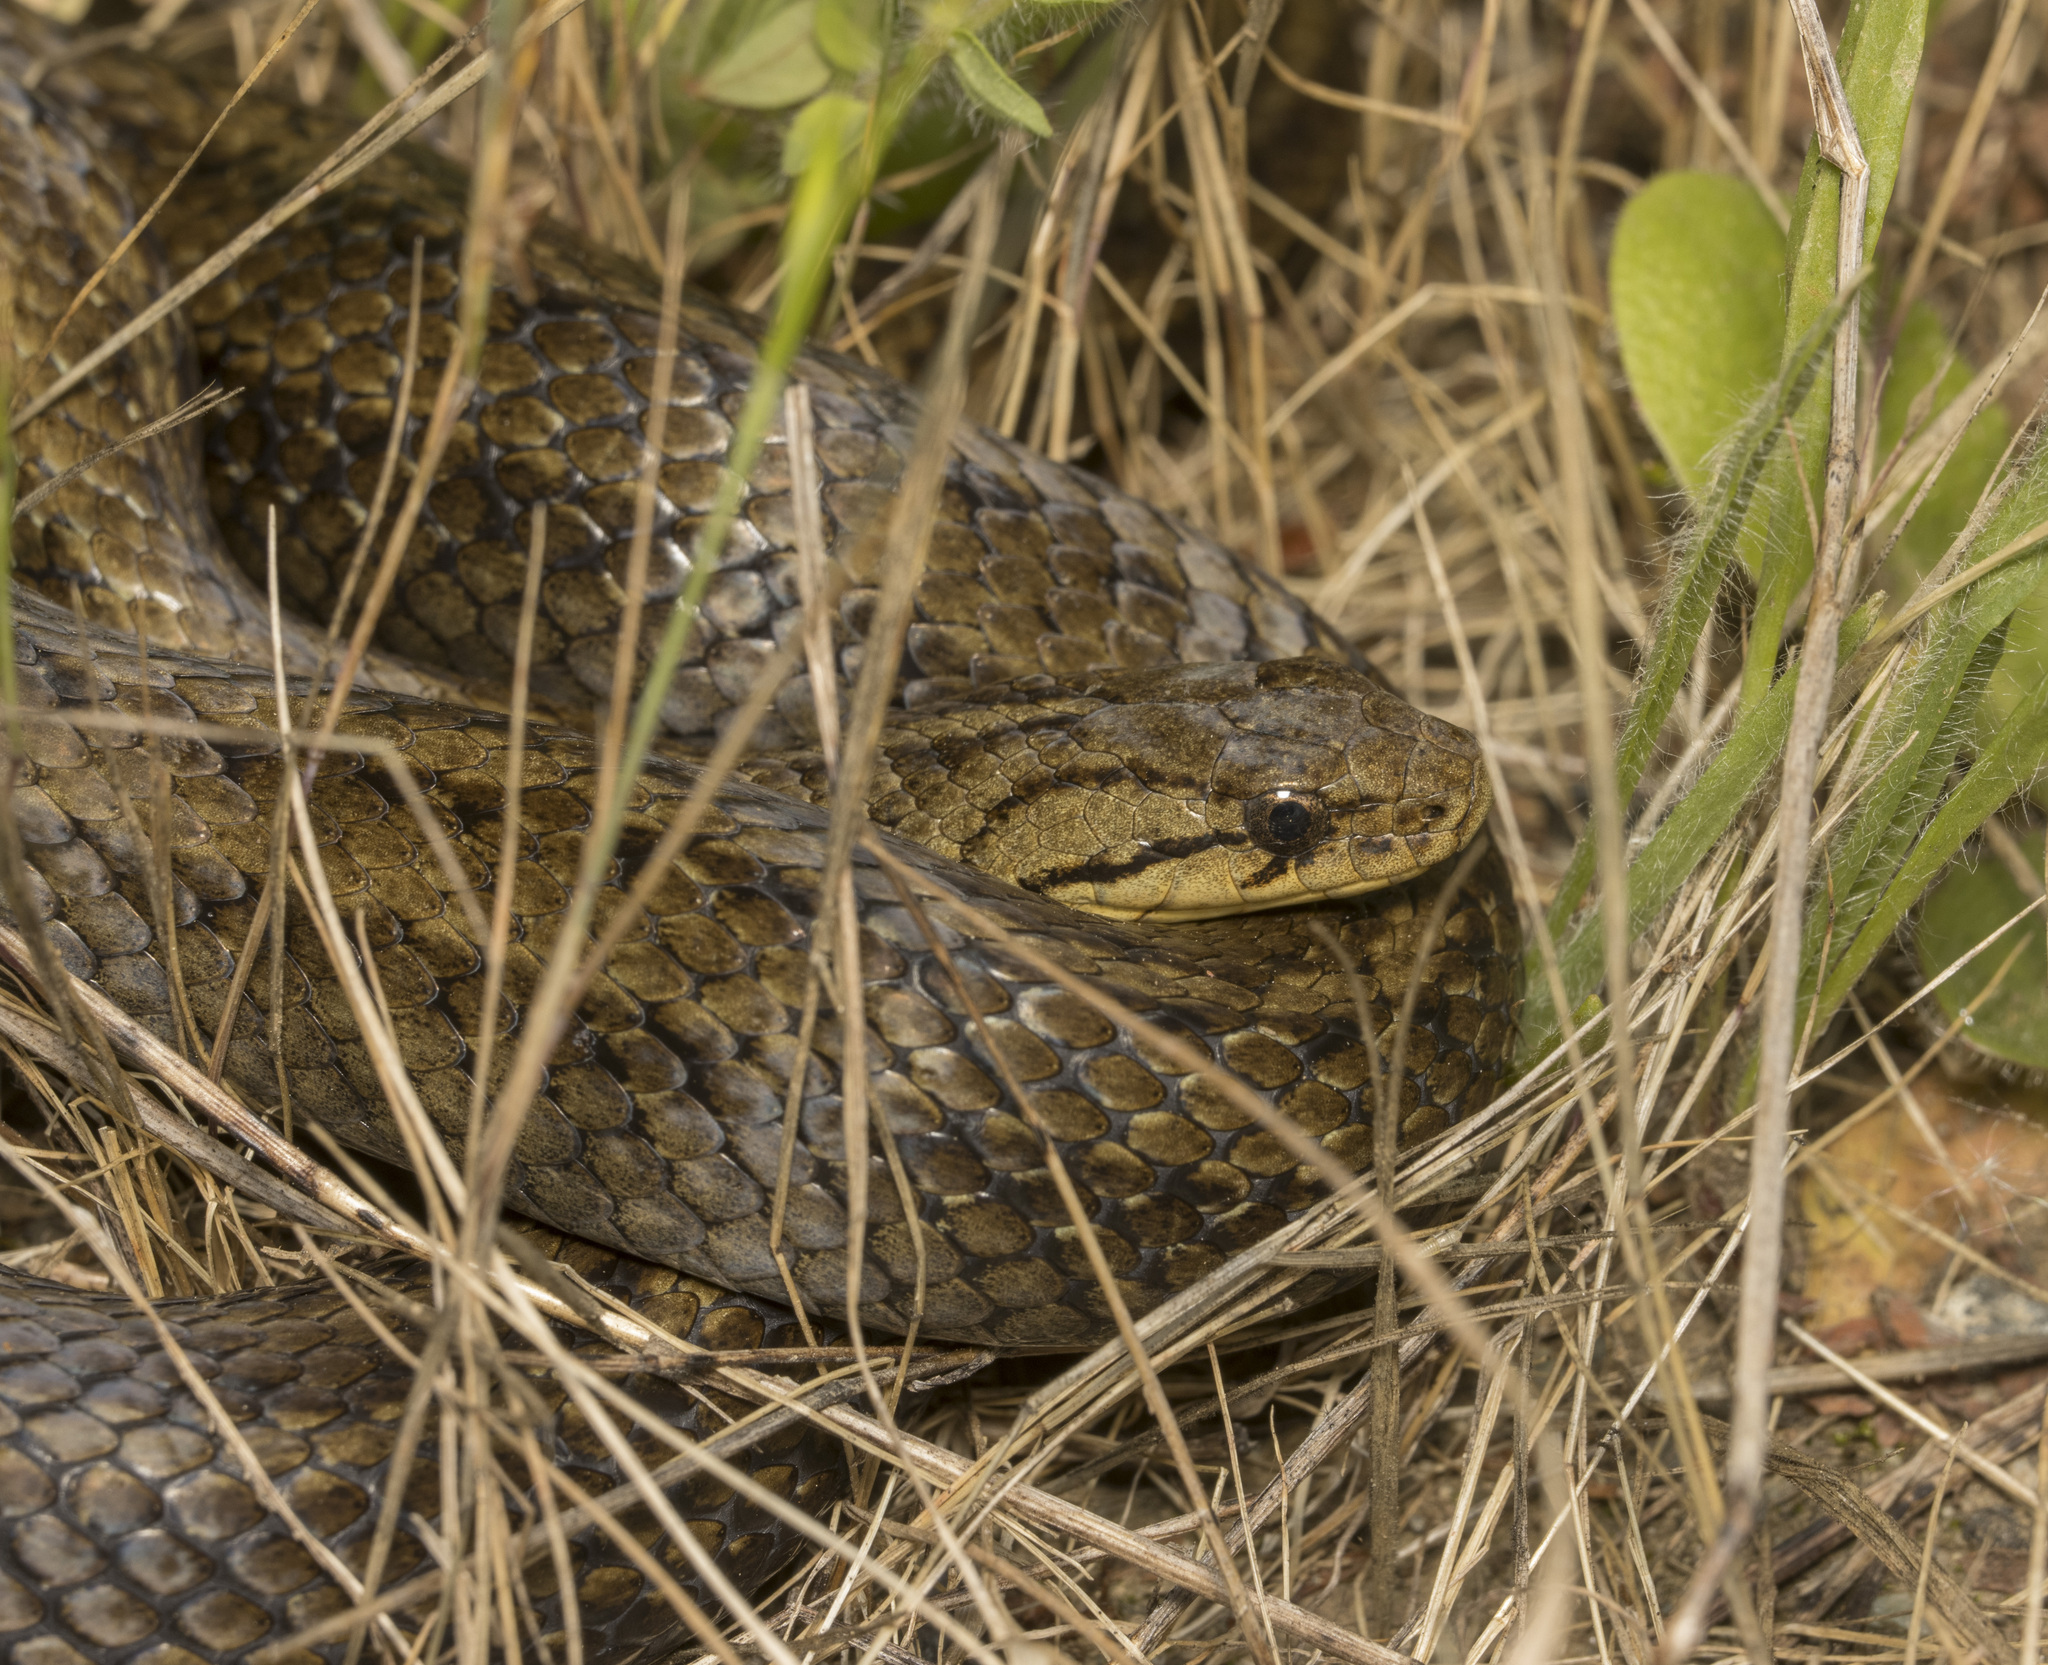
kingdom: Animalia
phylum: Chordata
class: Squamata
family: Colubridae
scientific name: Colubridae
